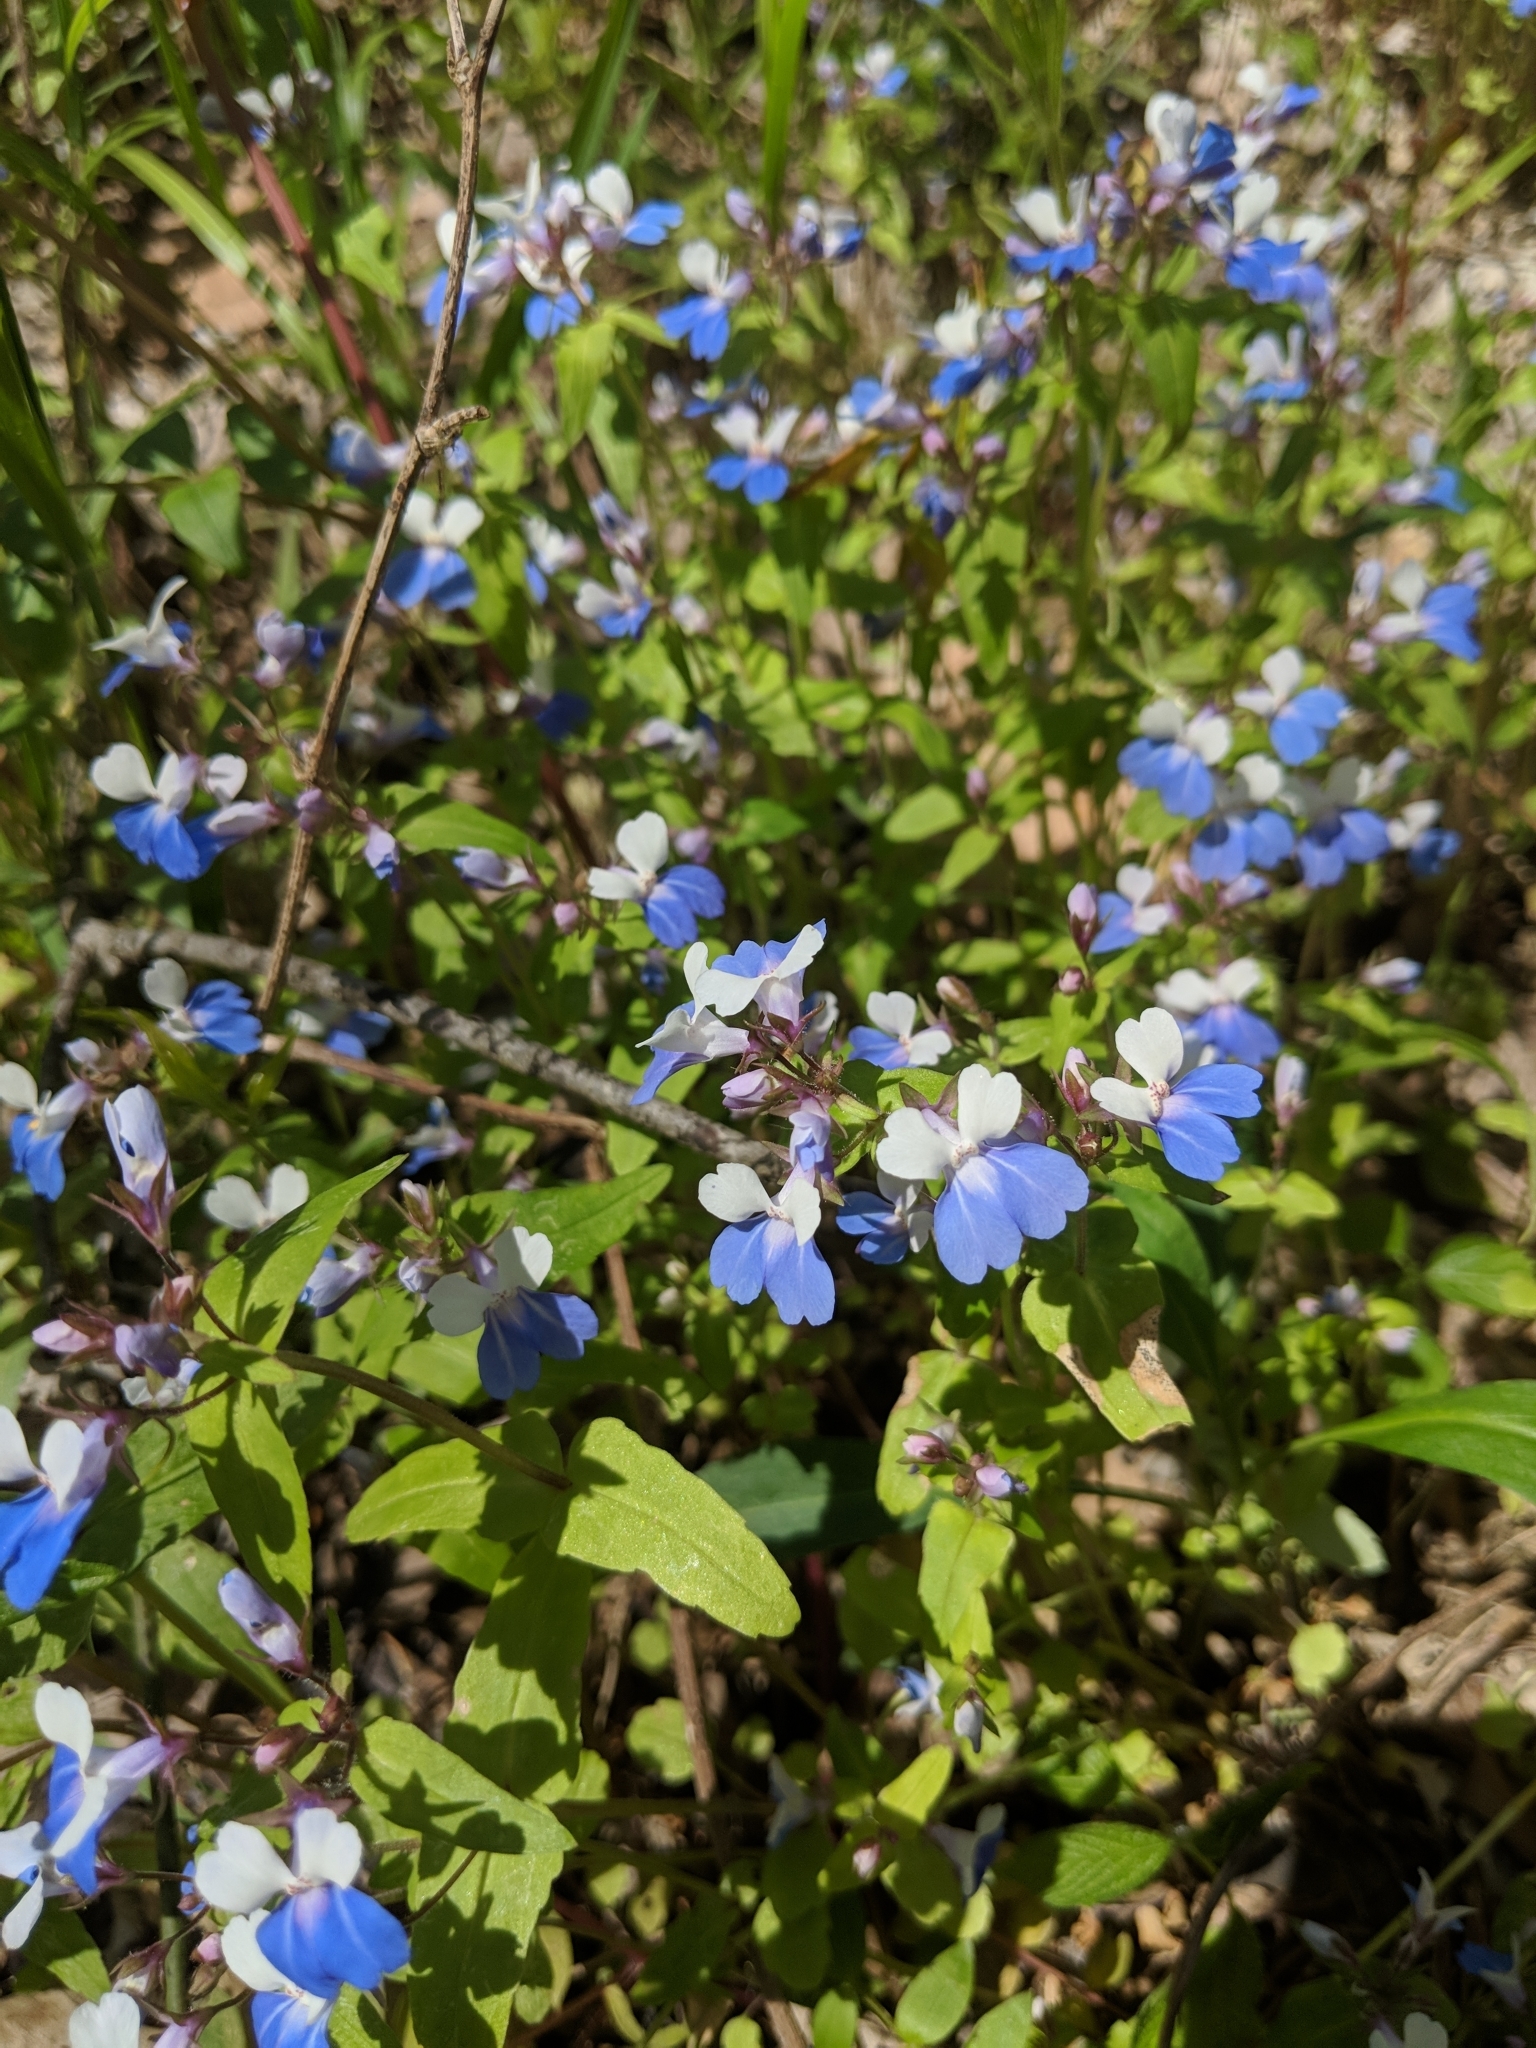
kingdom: Plantae
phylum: Tracheophyta
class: Magnoliopsida
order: Lamiales
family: Plantaginaceae
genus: Collinsia
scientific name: Collinsia verna
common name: Broad-leaved collinsia
